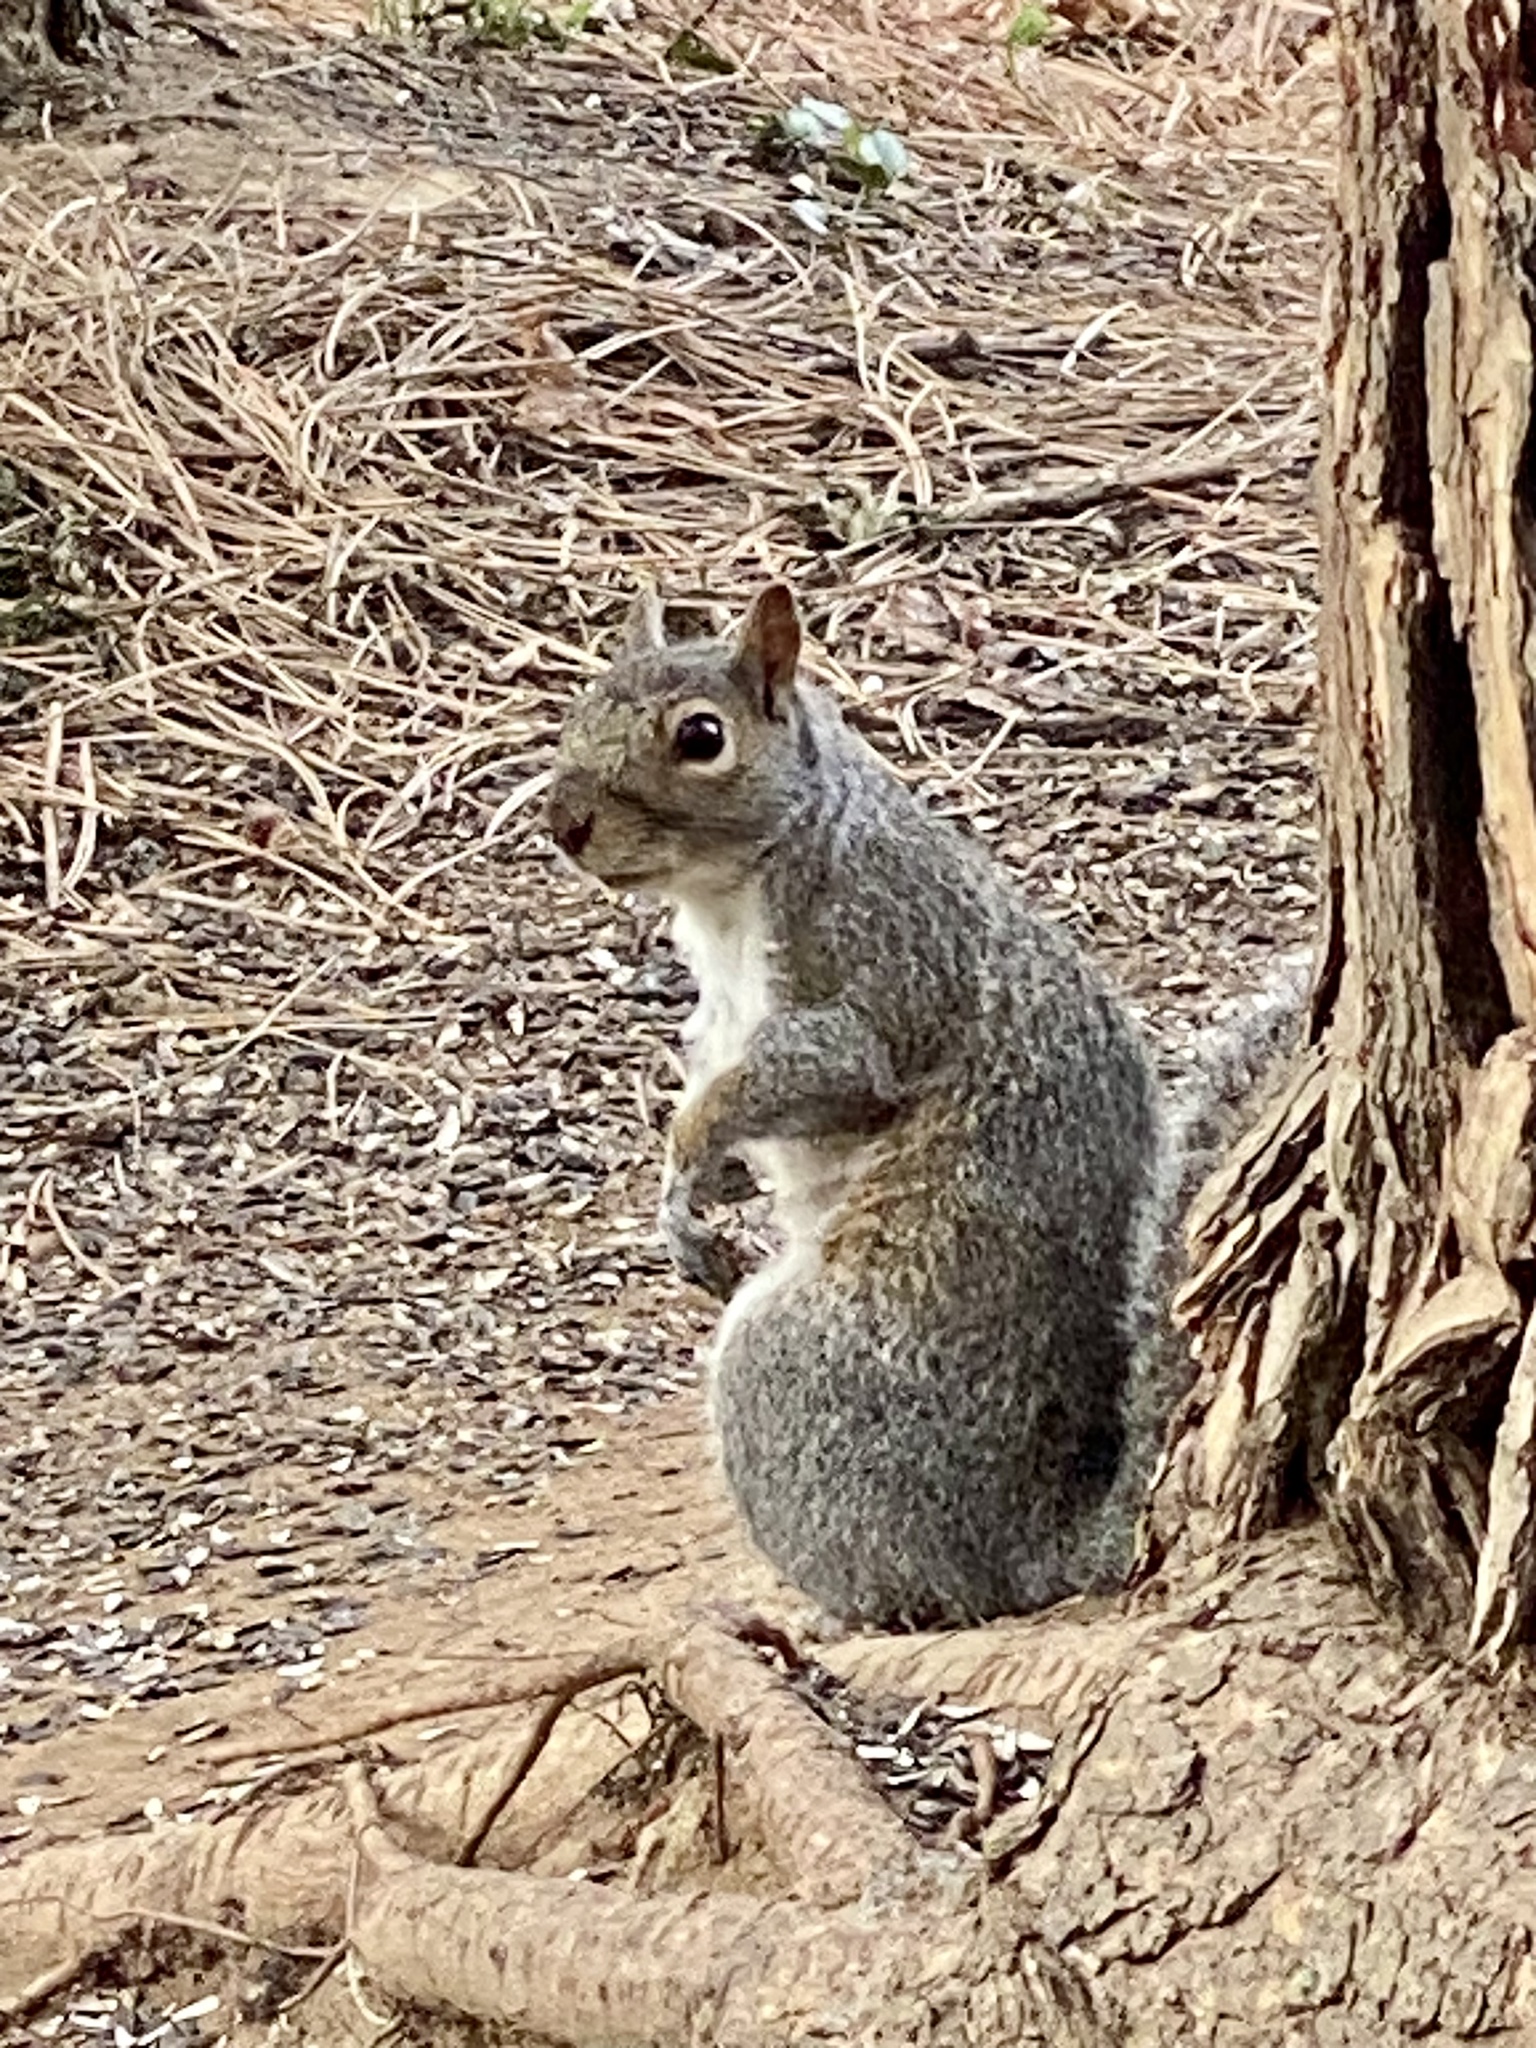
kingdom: Animalia
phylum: Chordata
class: Mammalia
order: Rodentia
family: Sciuridae
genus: Sciurus
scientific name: Sciurus carolinensis
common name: Eastern gray squirrel
